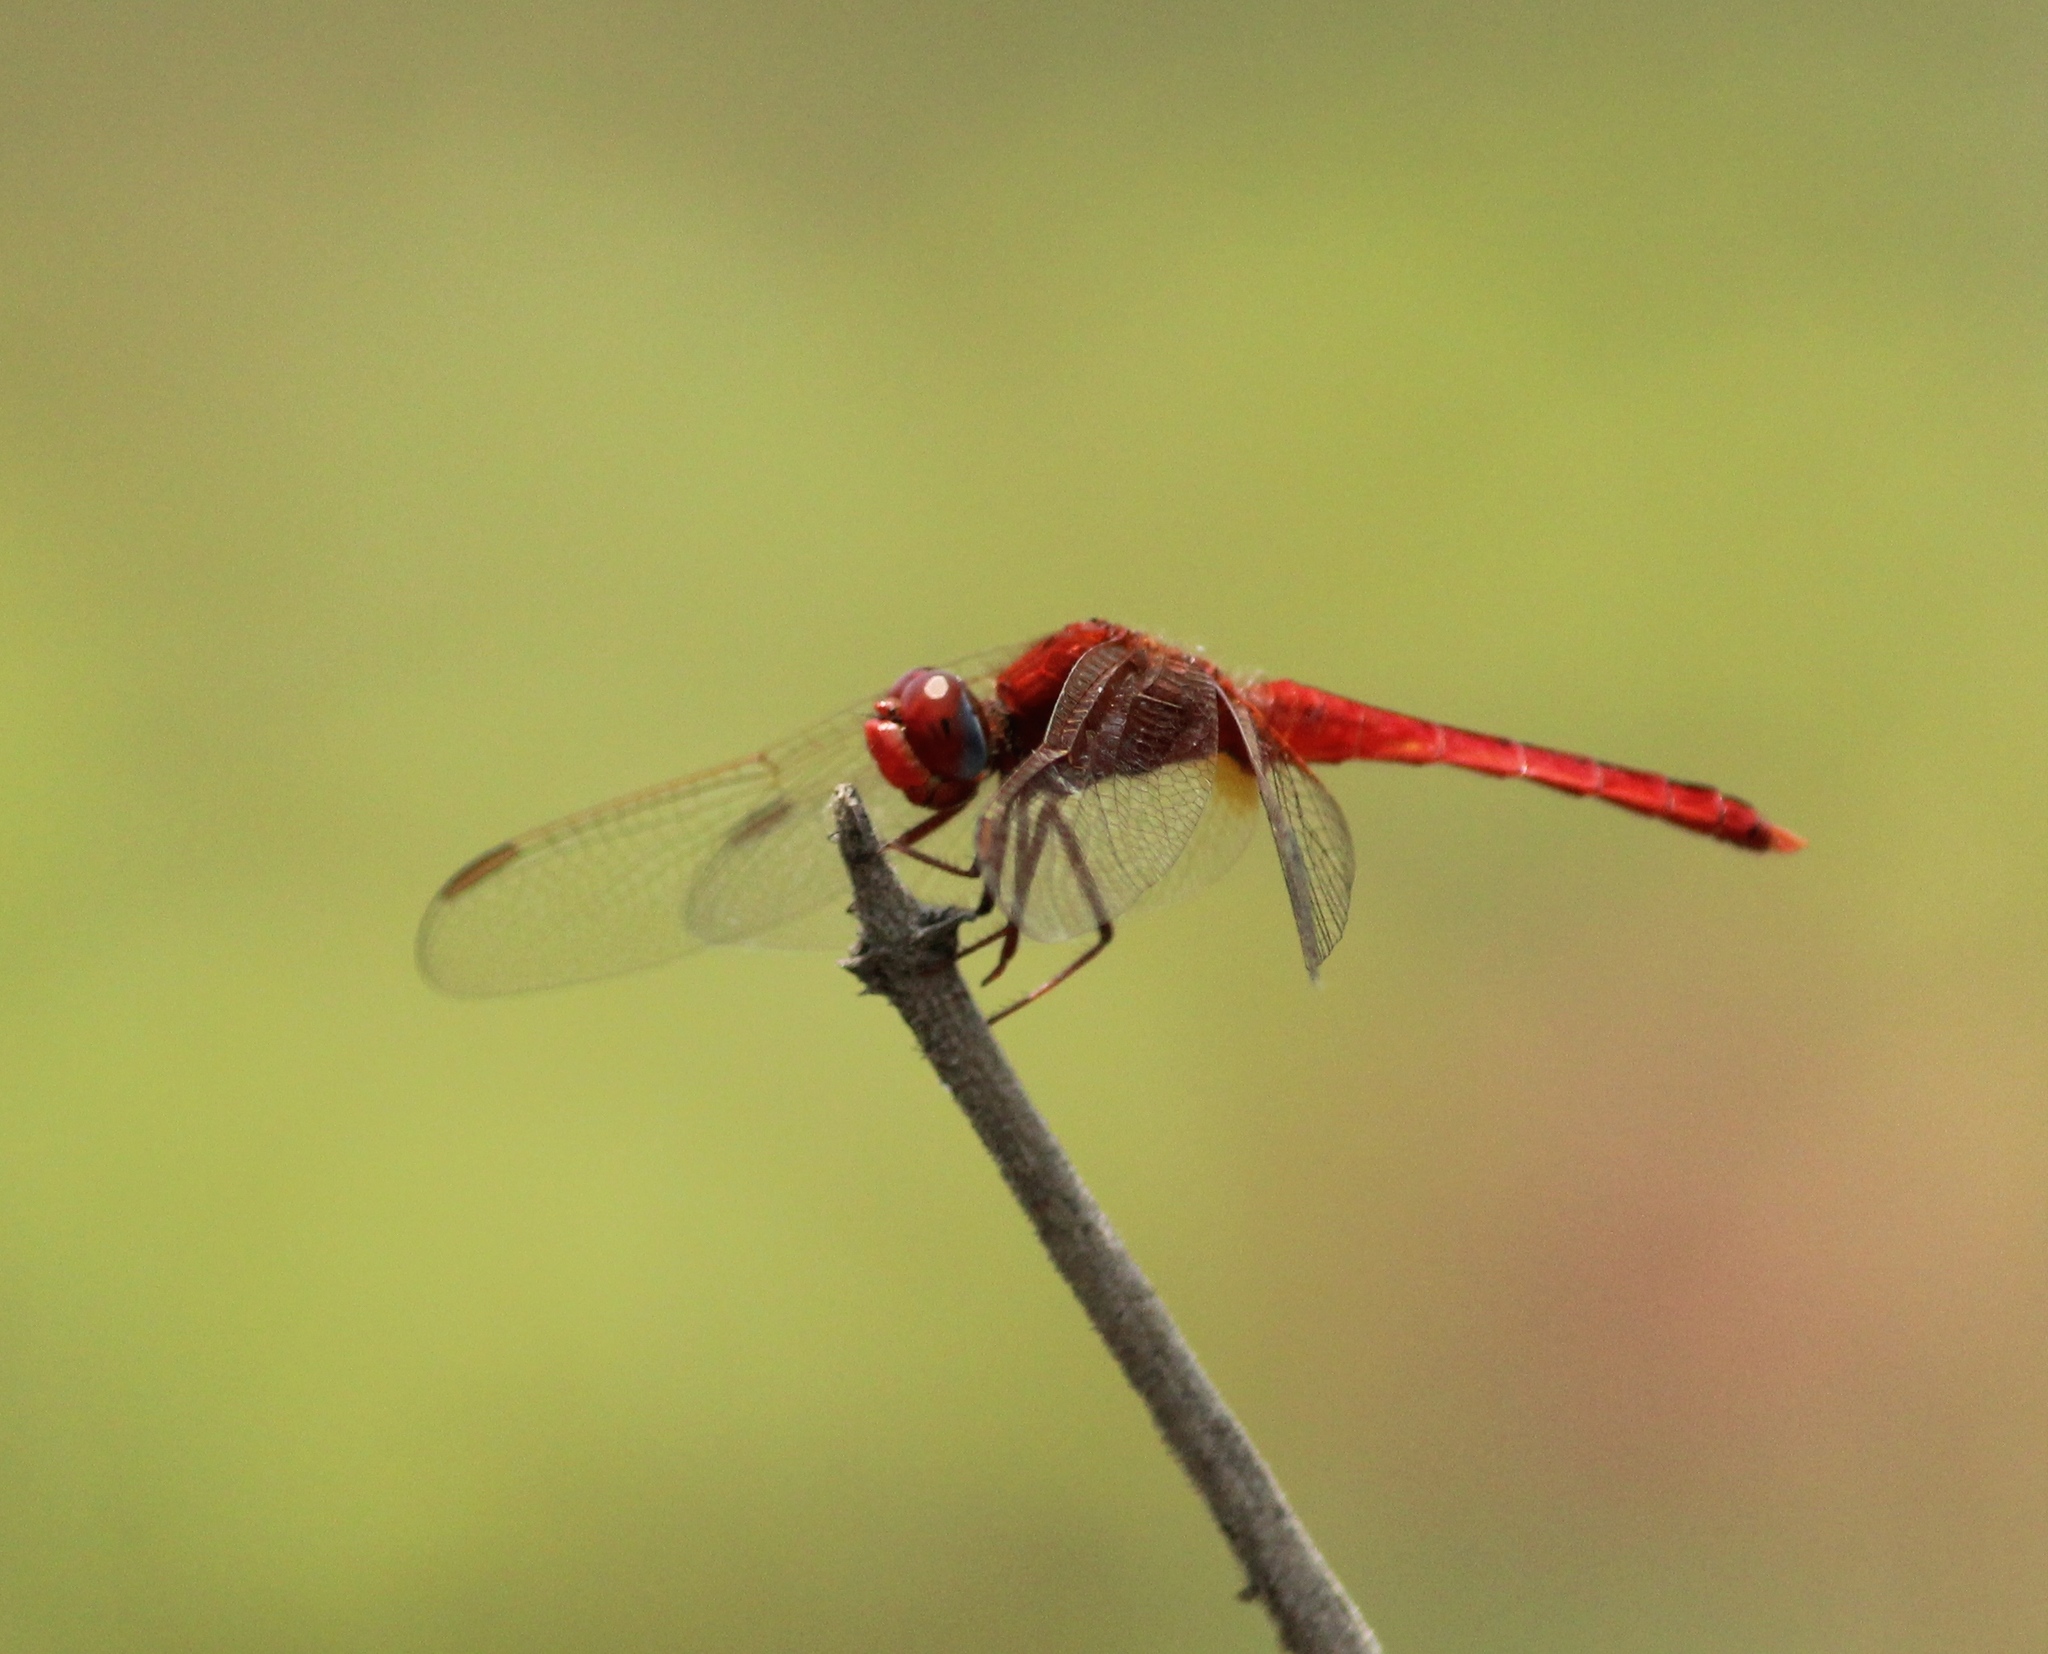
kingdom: Animalia
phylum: Arthropoda
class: Insecta
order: Odonata
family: Libellulidae
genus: Crocothemis
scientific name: Crocothemis servilia
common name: Scarlet skimmer
